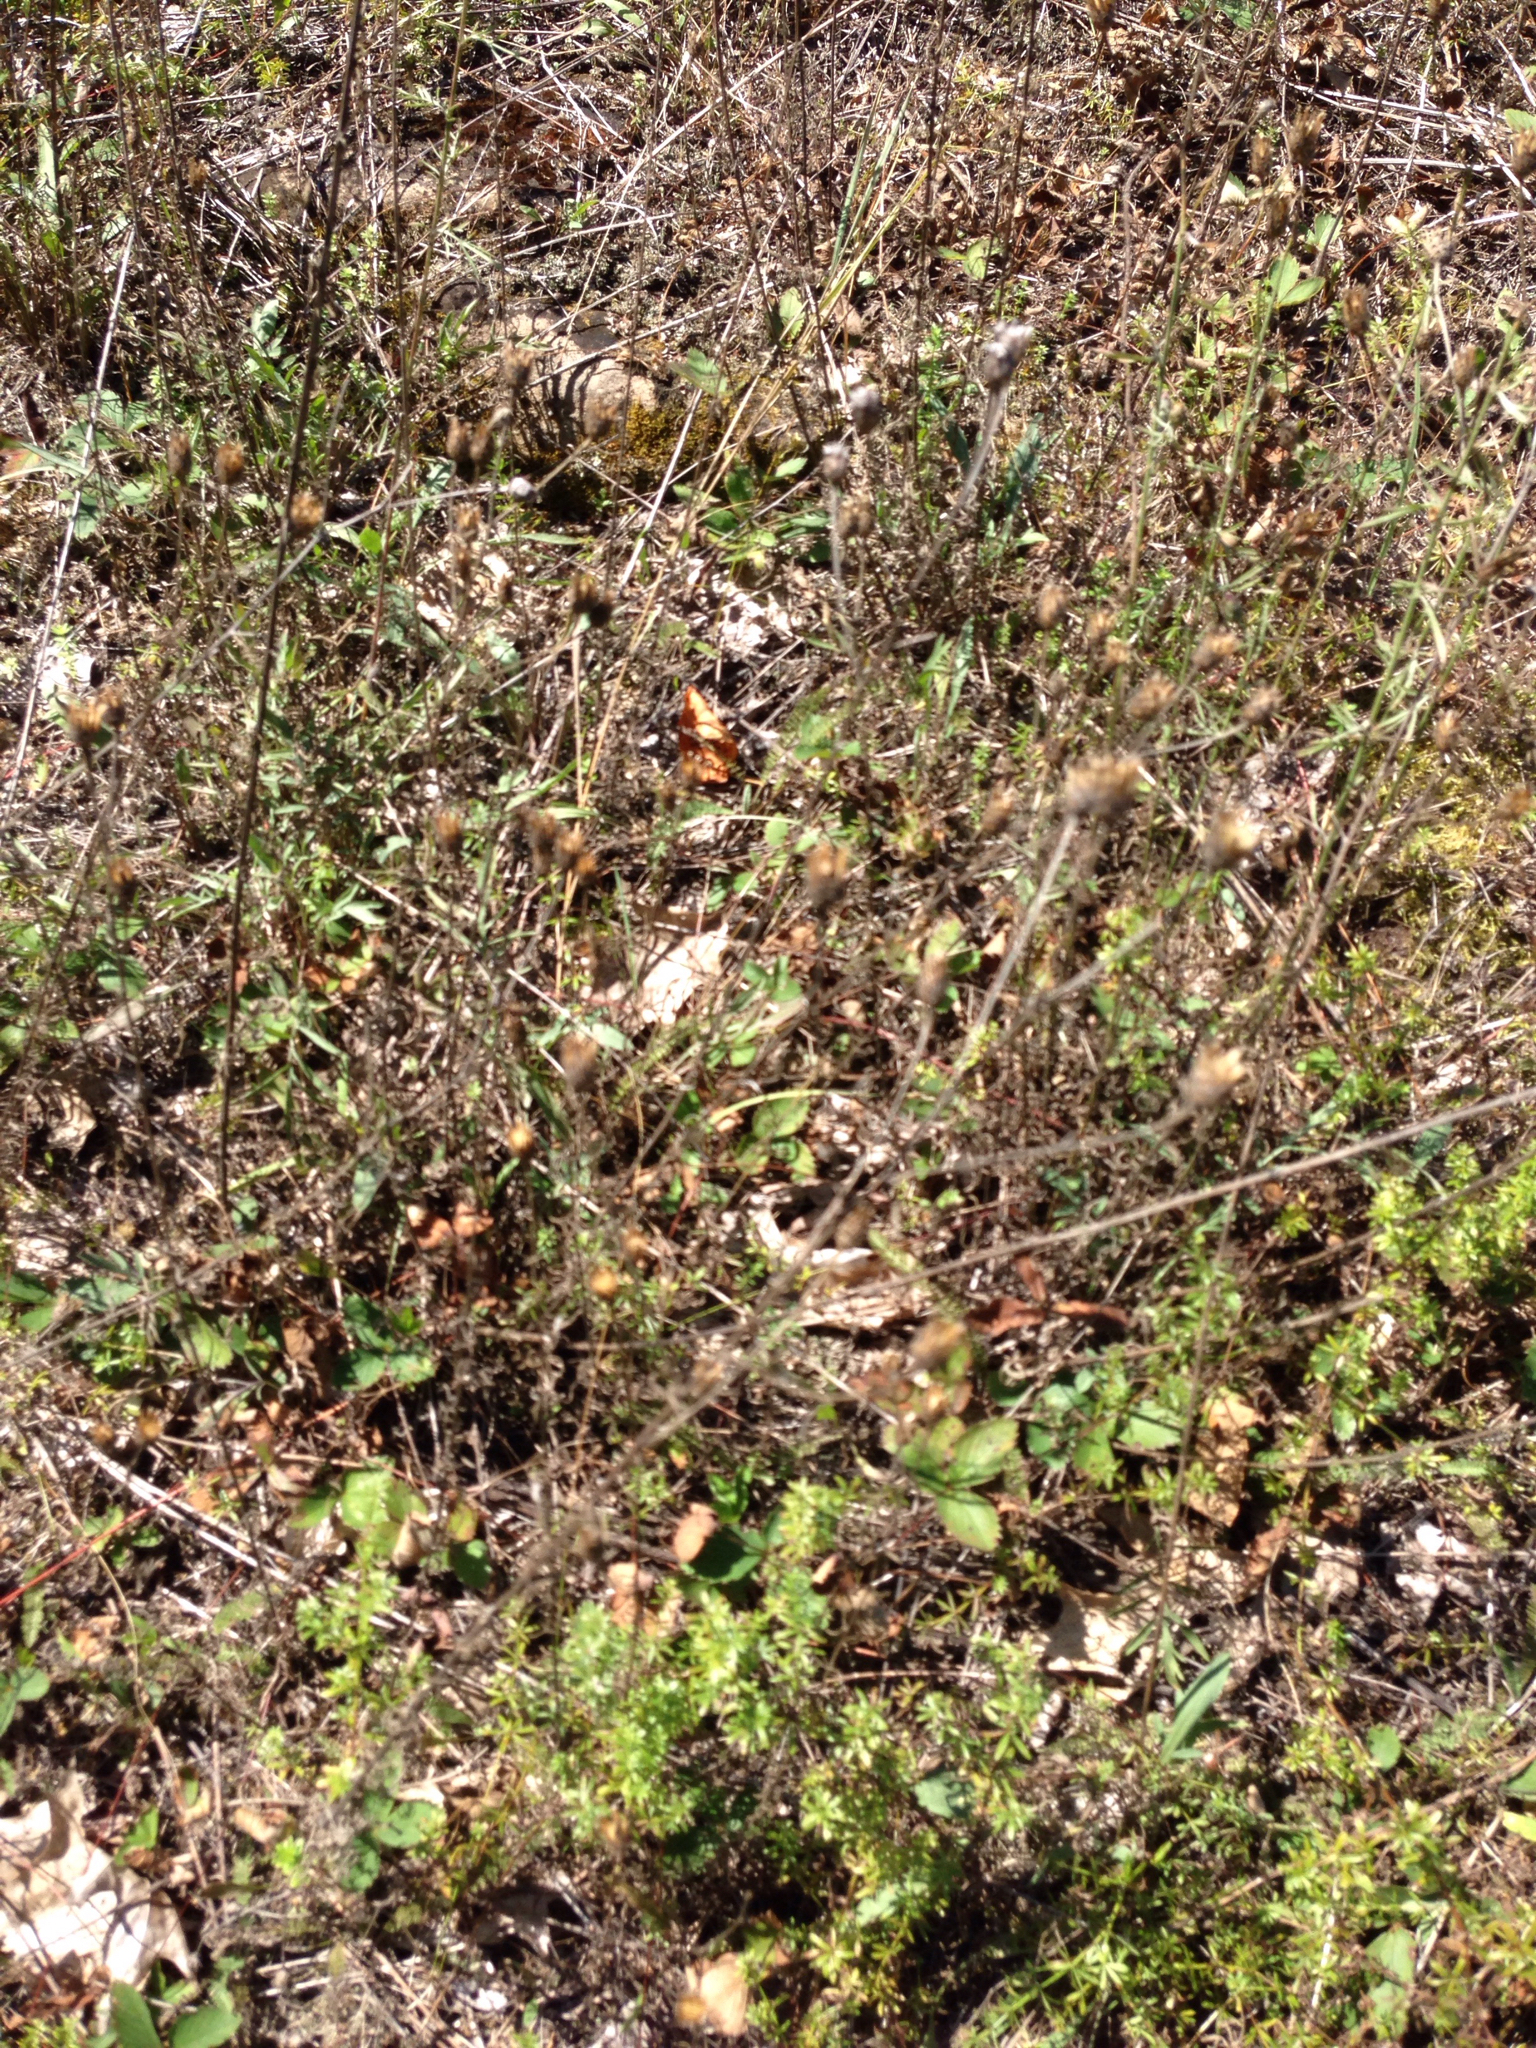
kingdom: Plantae
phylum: Tracheophyta
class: Magnoliopsida
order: Asterales
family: Asteraceae
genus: Centaurea
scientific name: Centaurea stoebe
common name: Spotted knapweed
